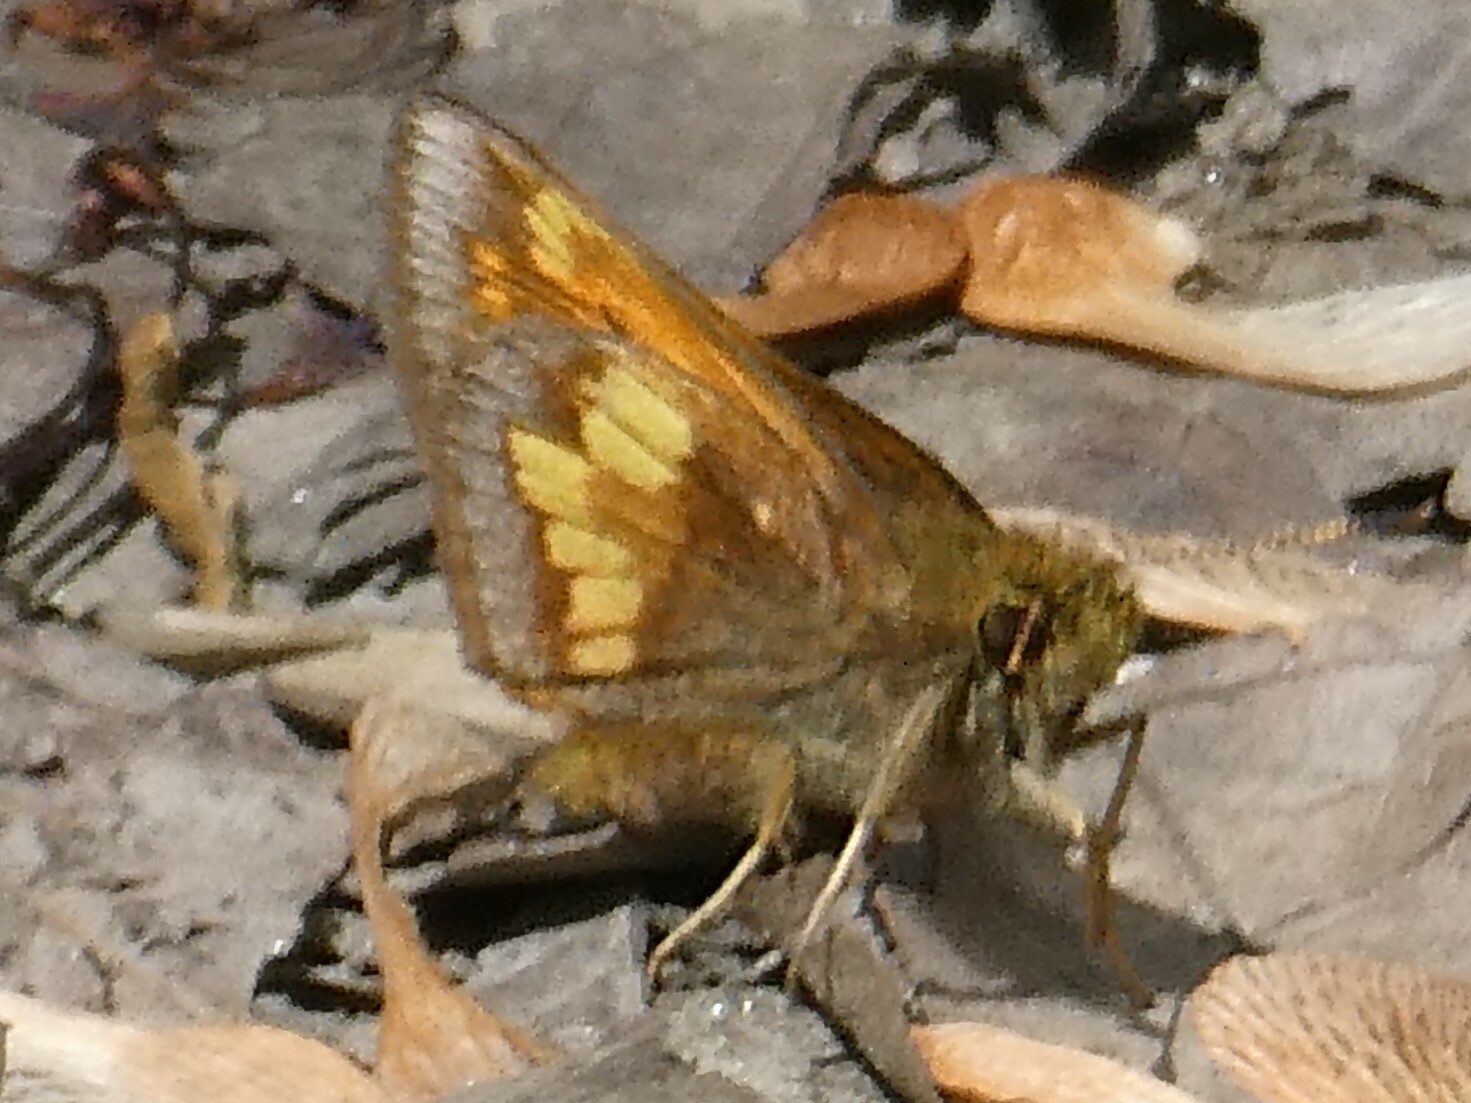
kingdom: Animalia
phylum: Arthropoda
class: Insecta
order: Lepidoptera
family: Hesperiidae
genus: Lon
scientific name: Lon hobomok
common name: Hobomok skipper
